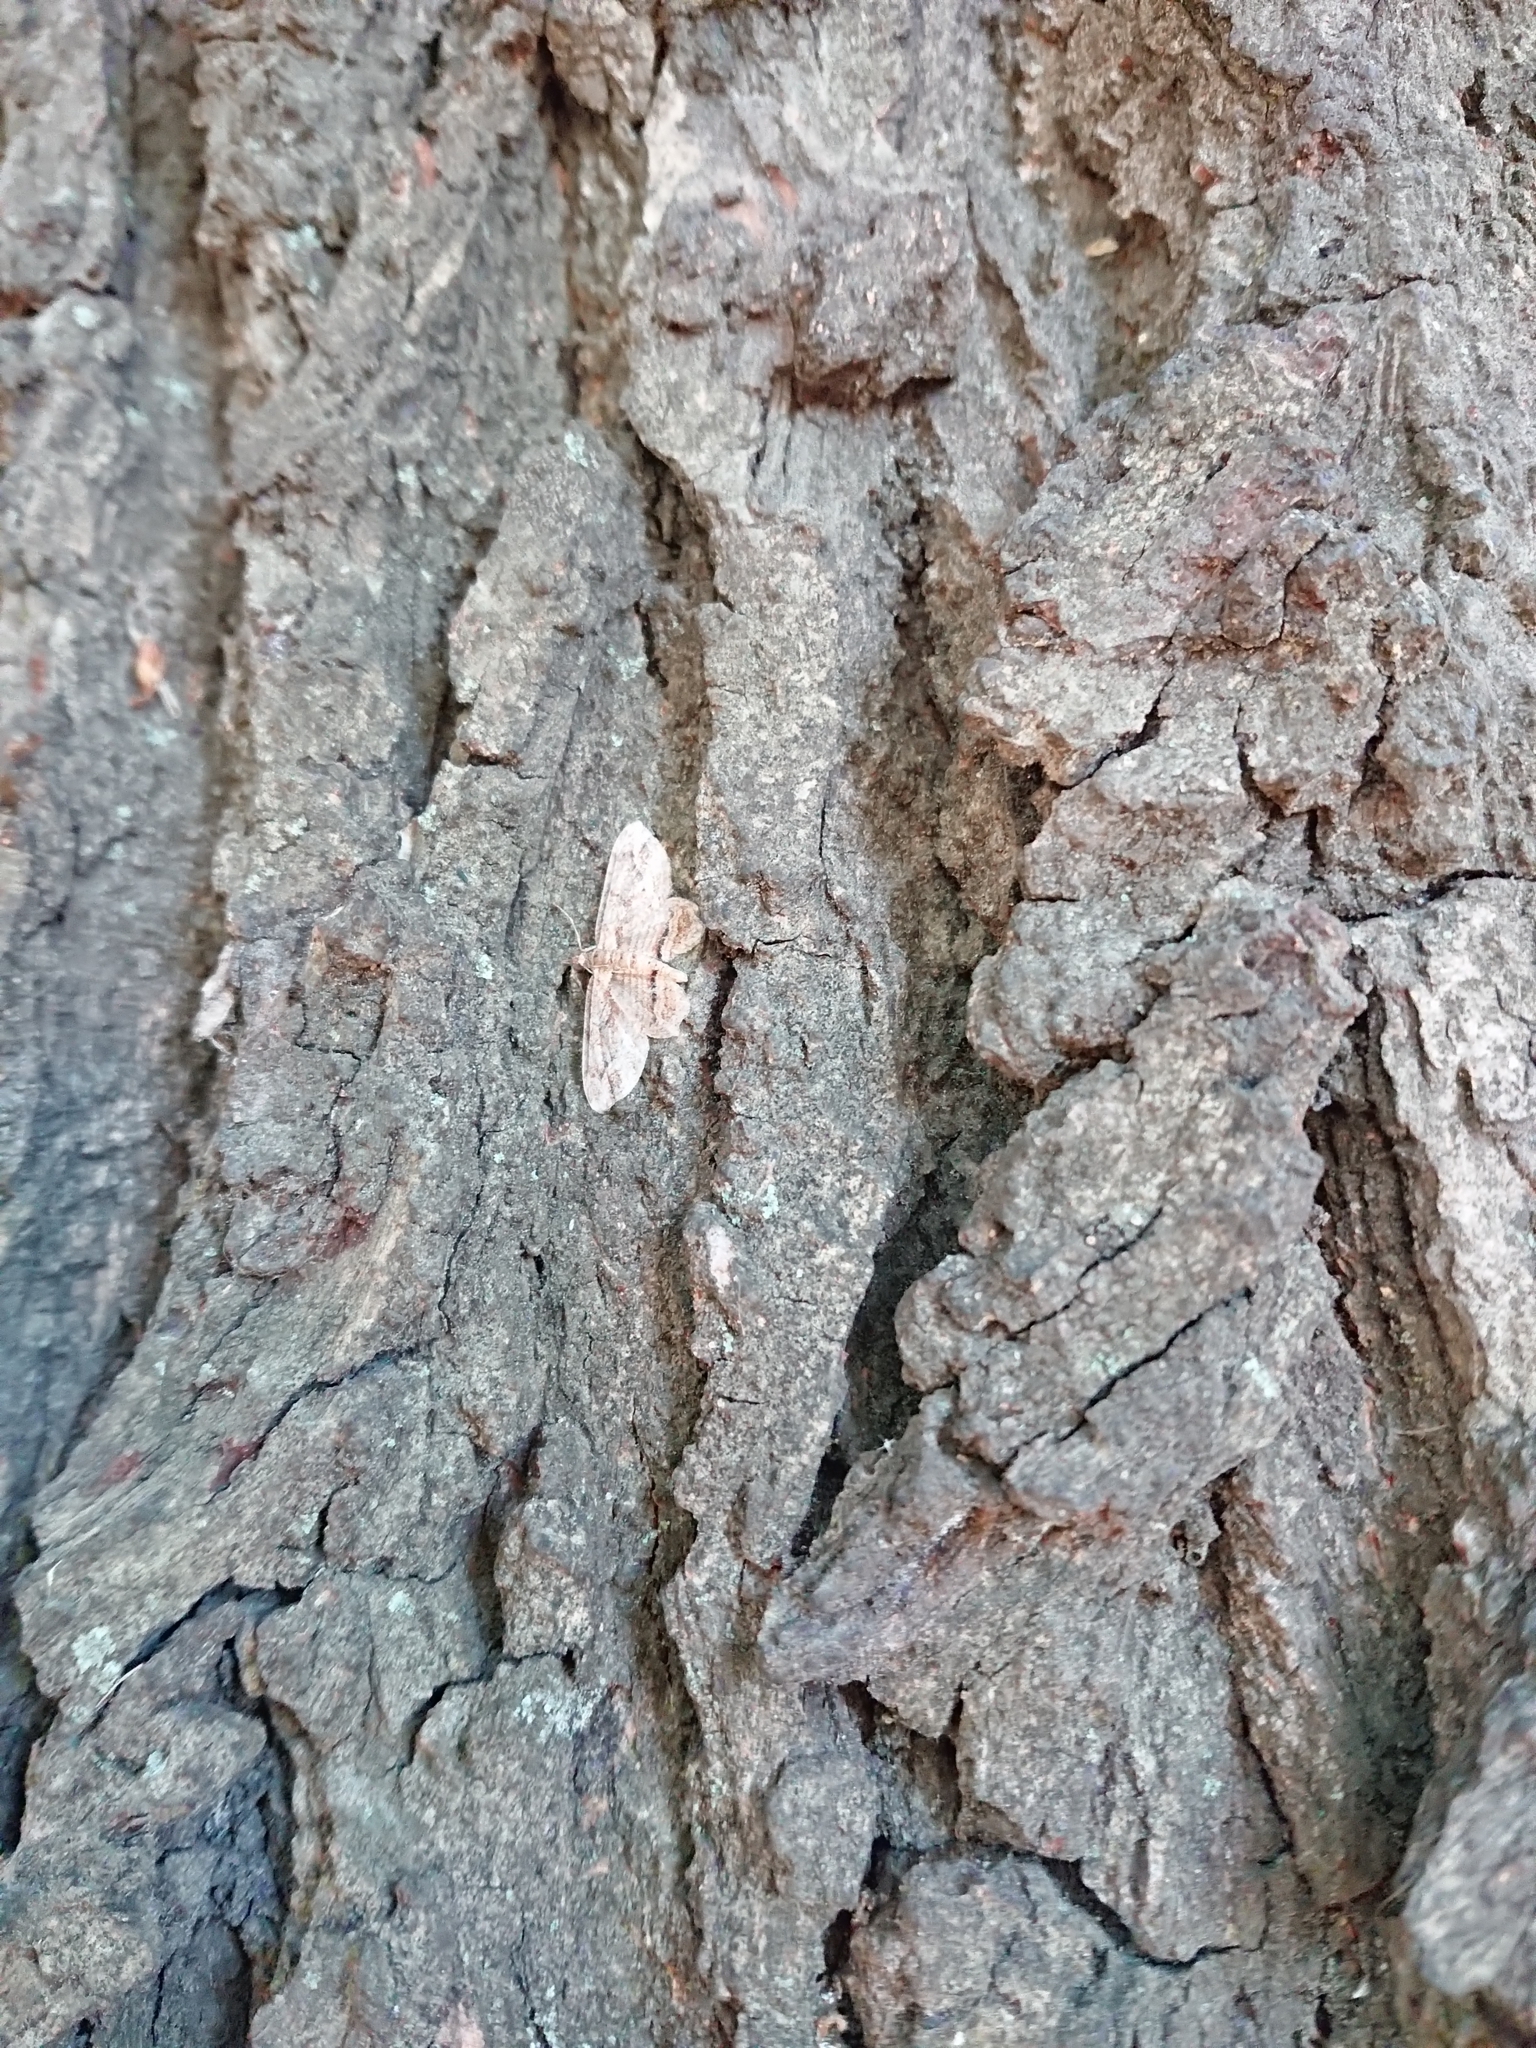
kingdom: Animalia
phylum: Arthropoda
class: Insecta
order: Lepidoptera
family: Geometridae
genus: Chloroclystis
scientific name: Chloroclystis filata
